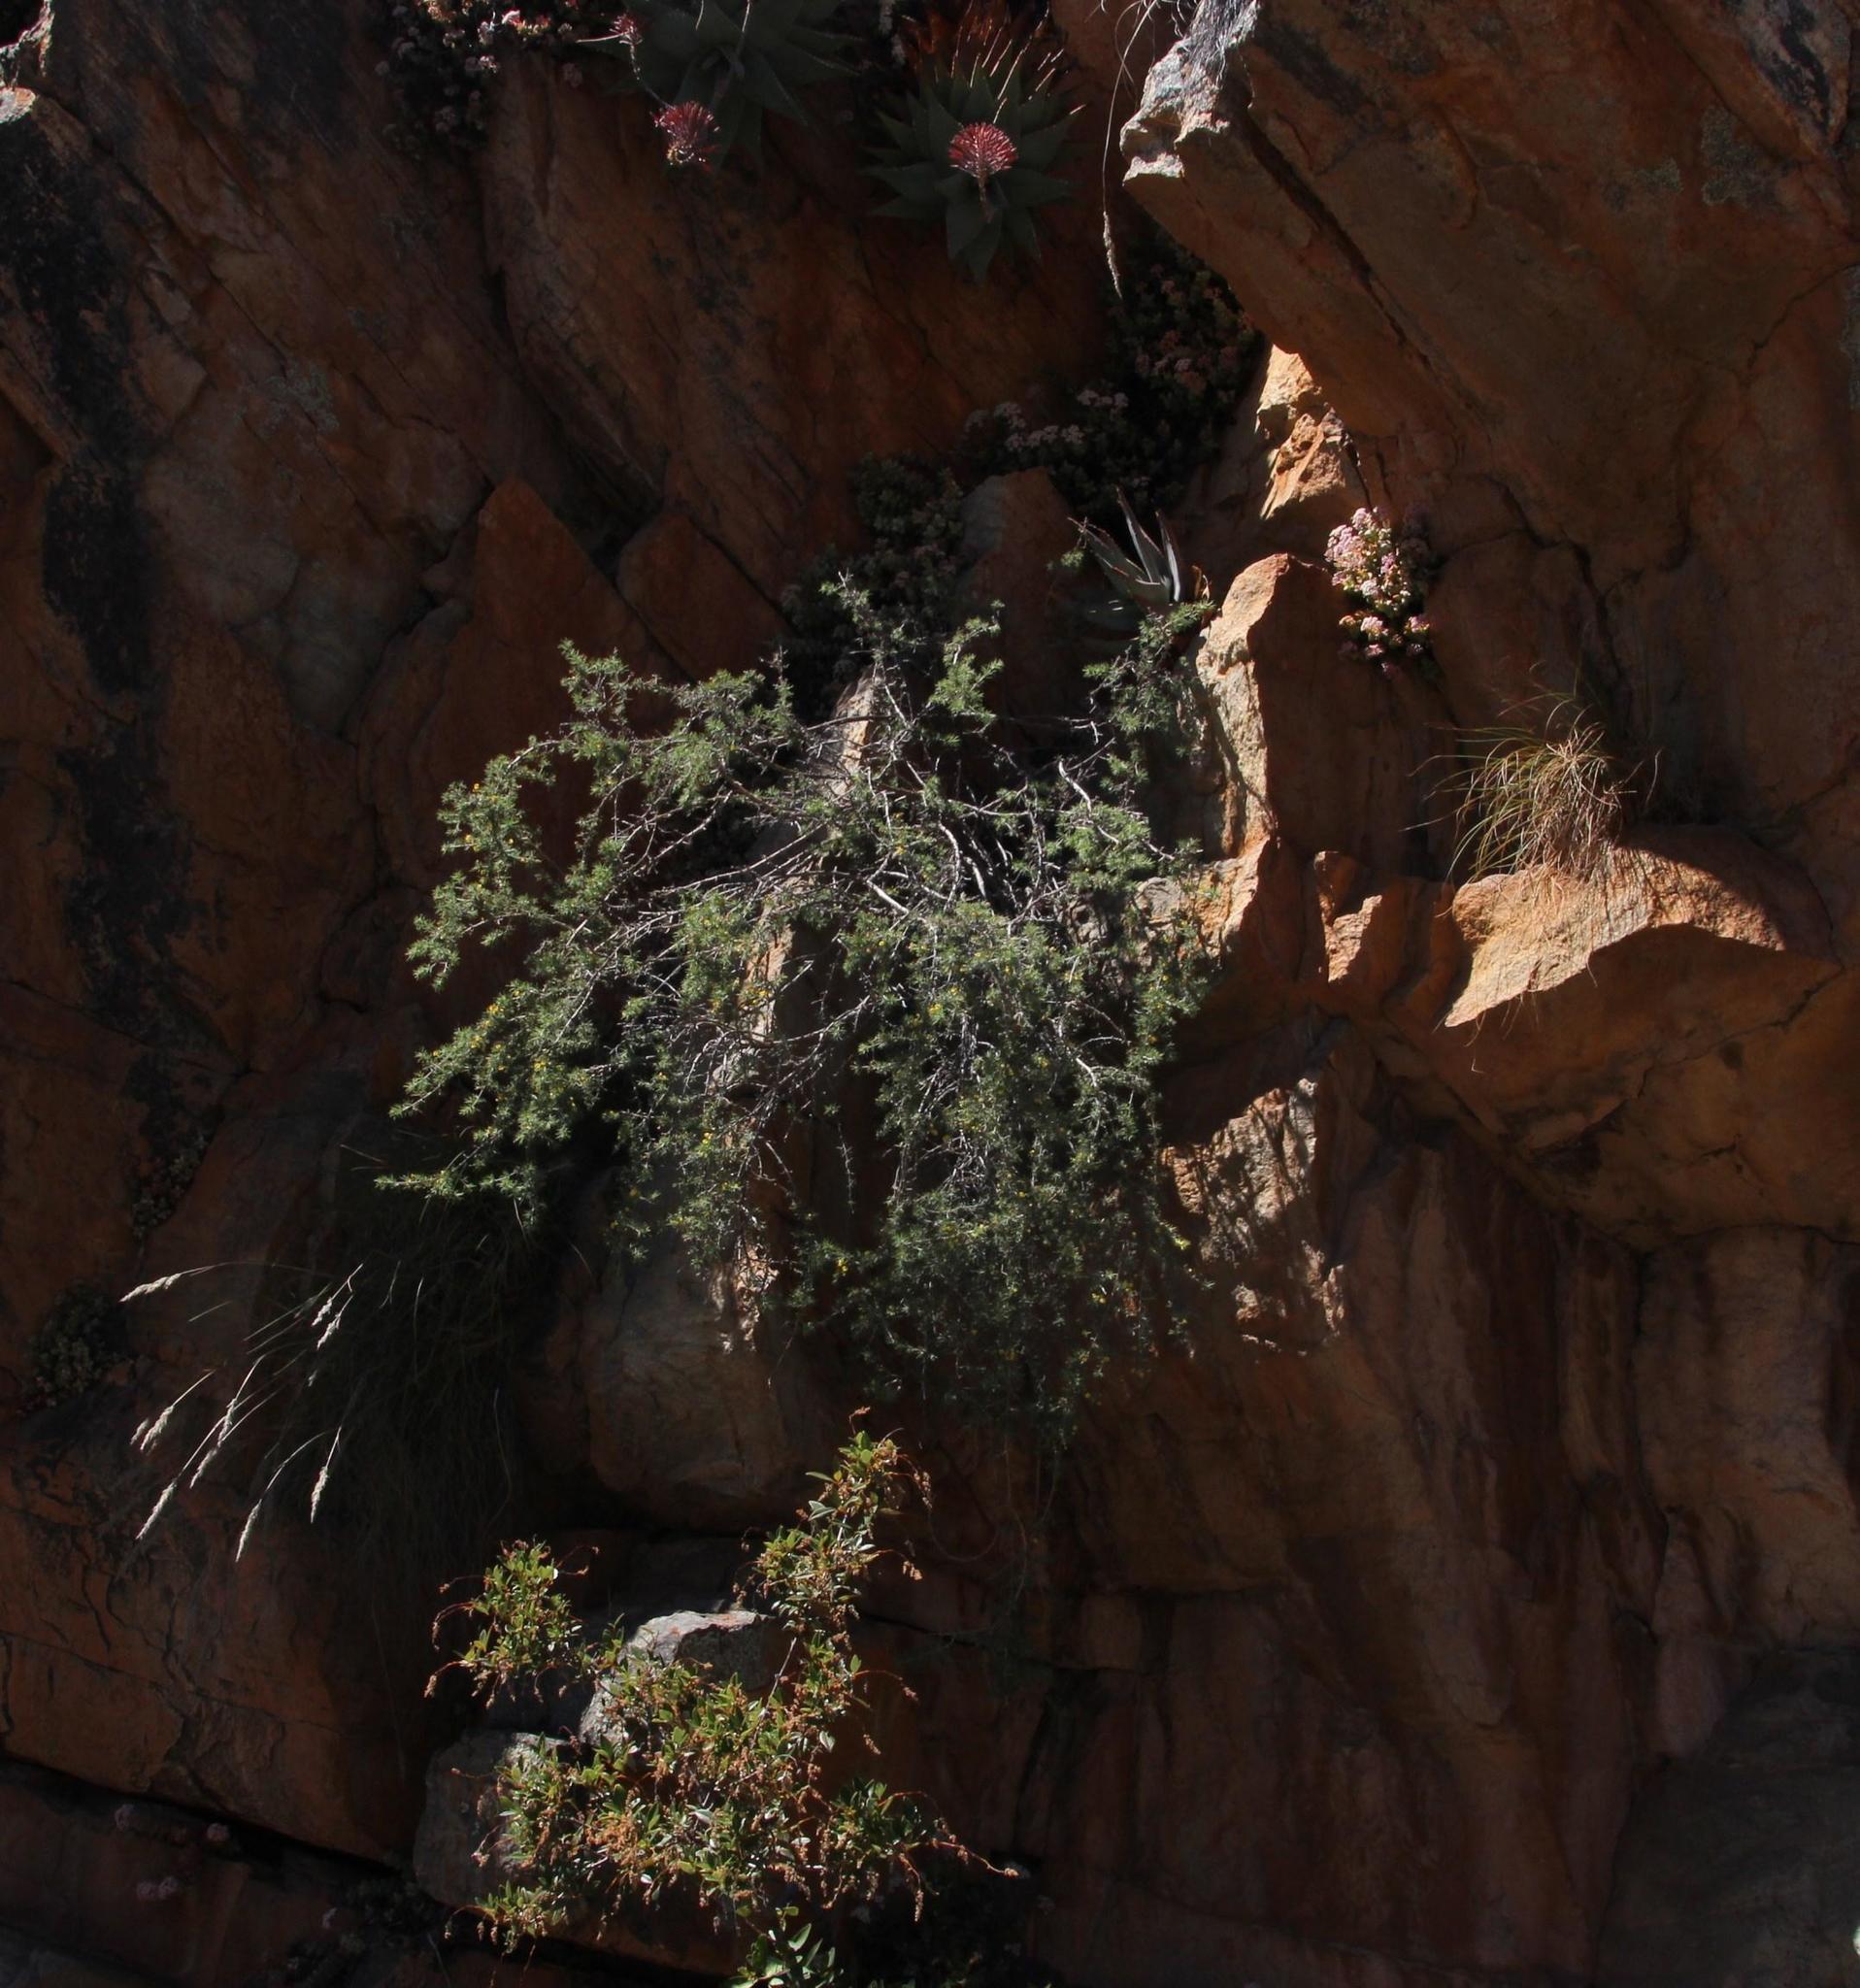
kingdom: Plantae
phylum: Tracheophyta
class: Magnoliopsida
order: Fabales
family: Fabaceae
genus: Aspalathus
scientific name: Aspalathus rigidifolia
